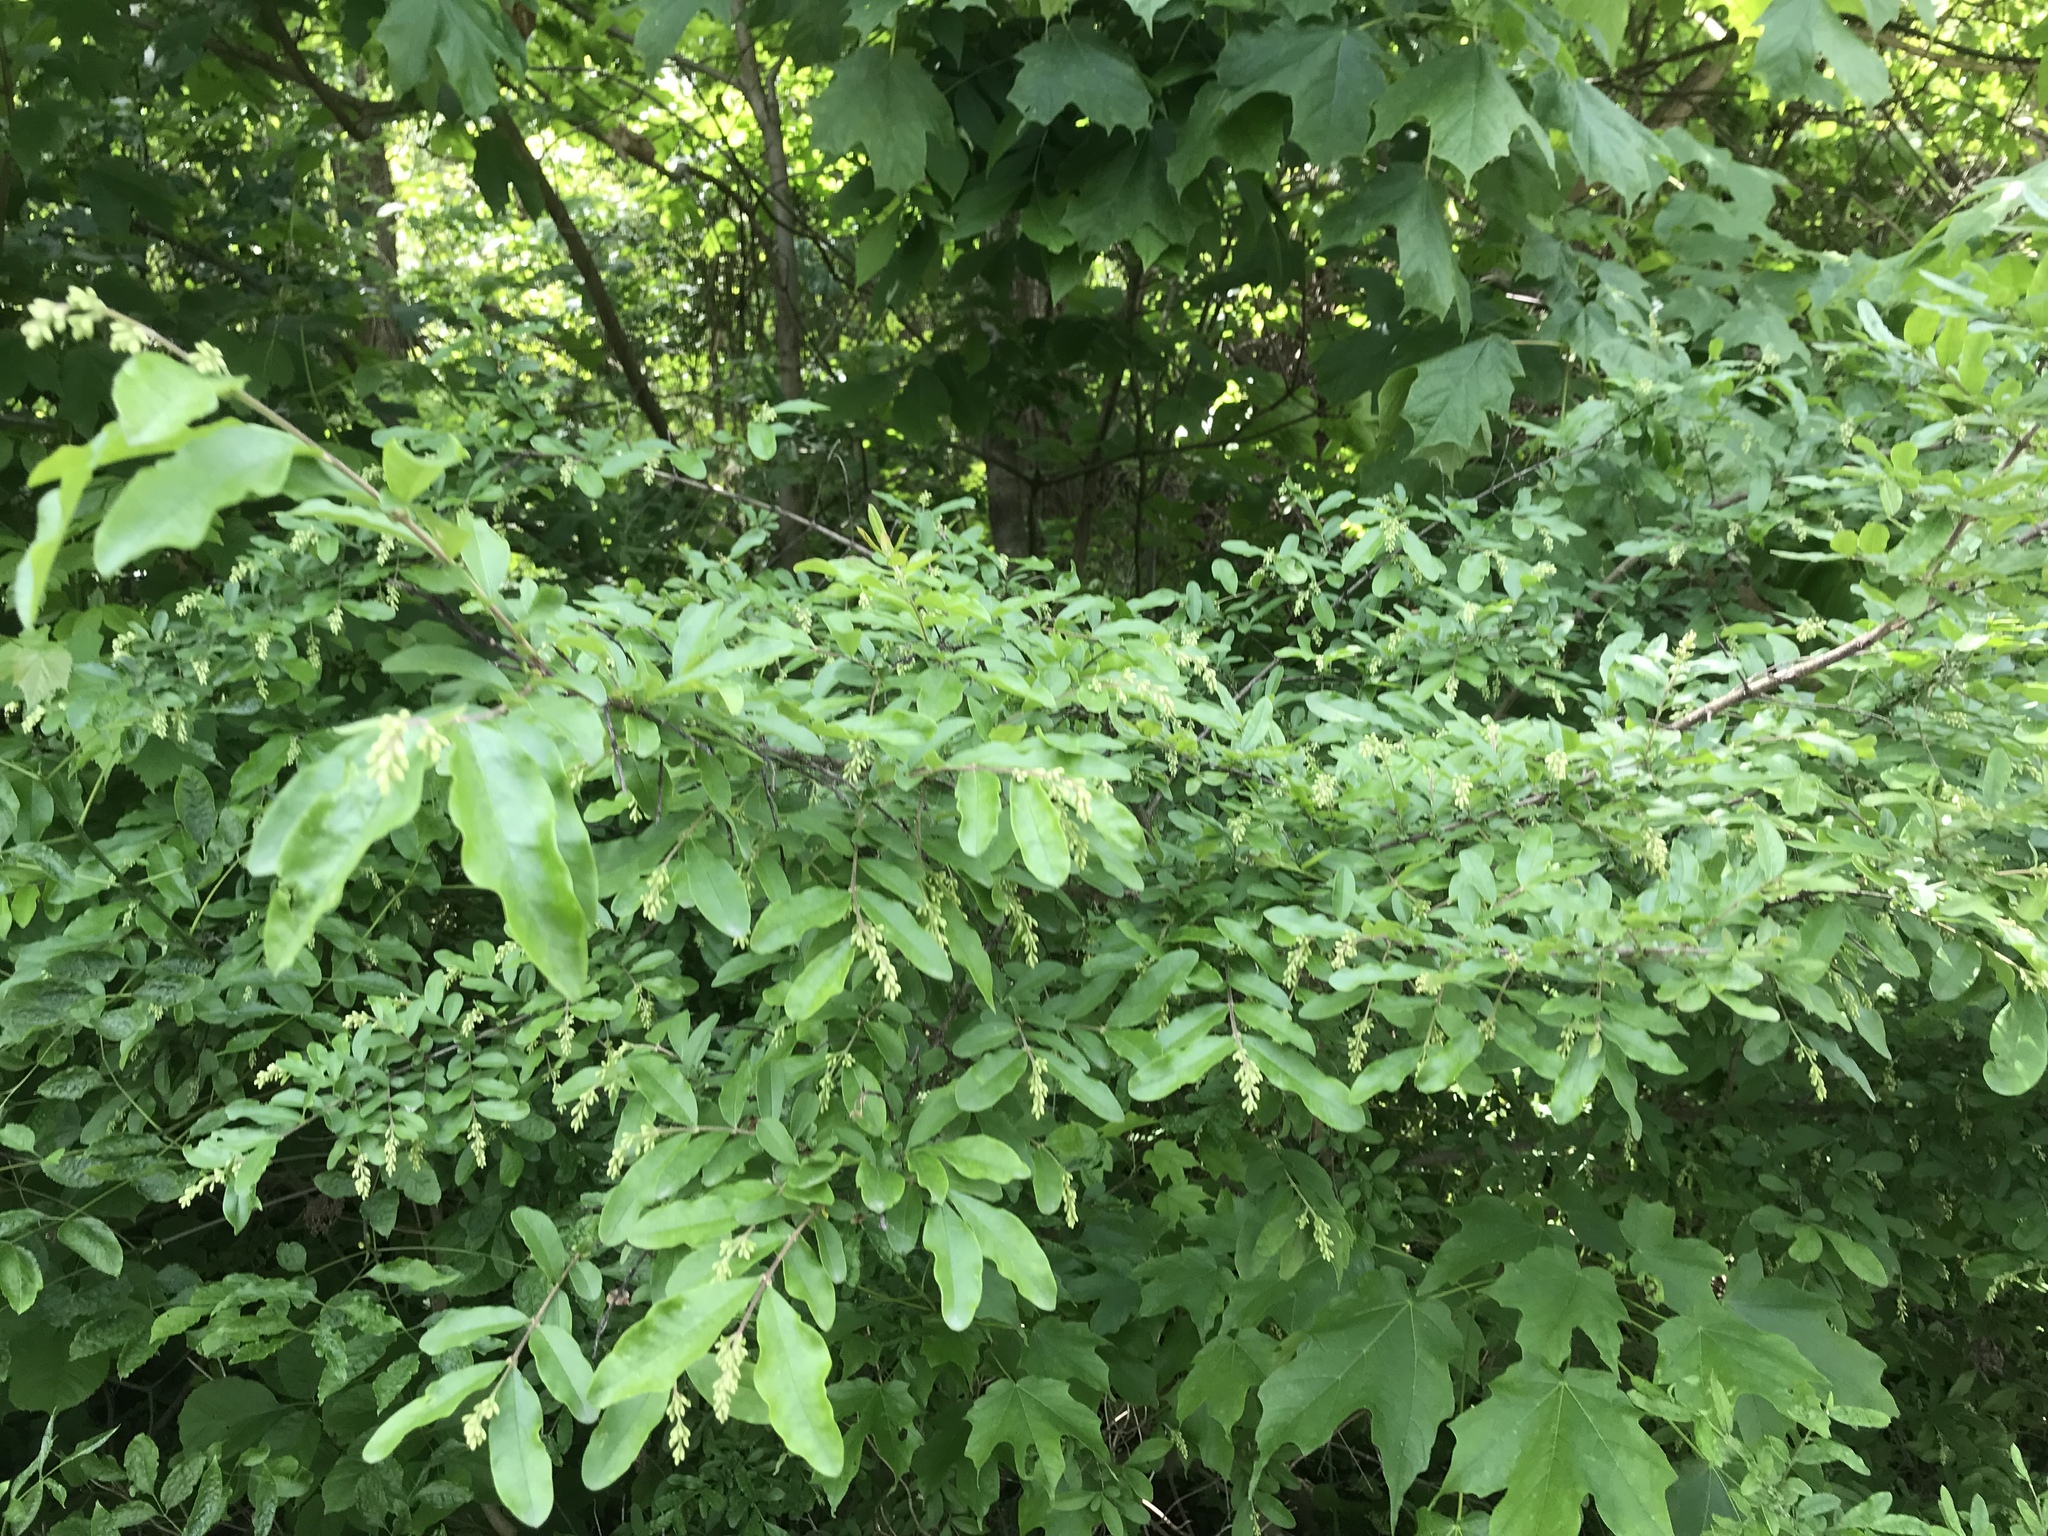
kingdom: Plantae
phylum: Tracheophyta
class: Magnoliopsida
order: Lamiales
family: Oleaceae
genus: Ligustrum
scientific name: Ligustrum obtusifolium
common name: Border privet
